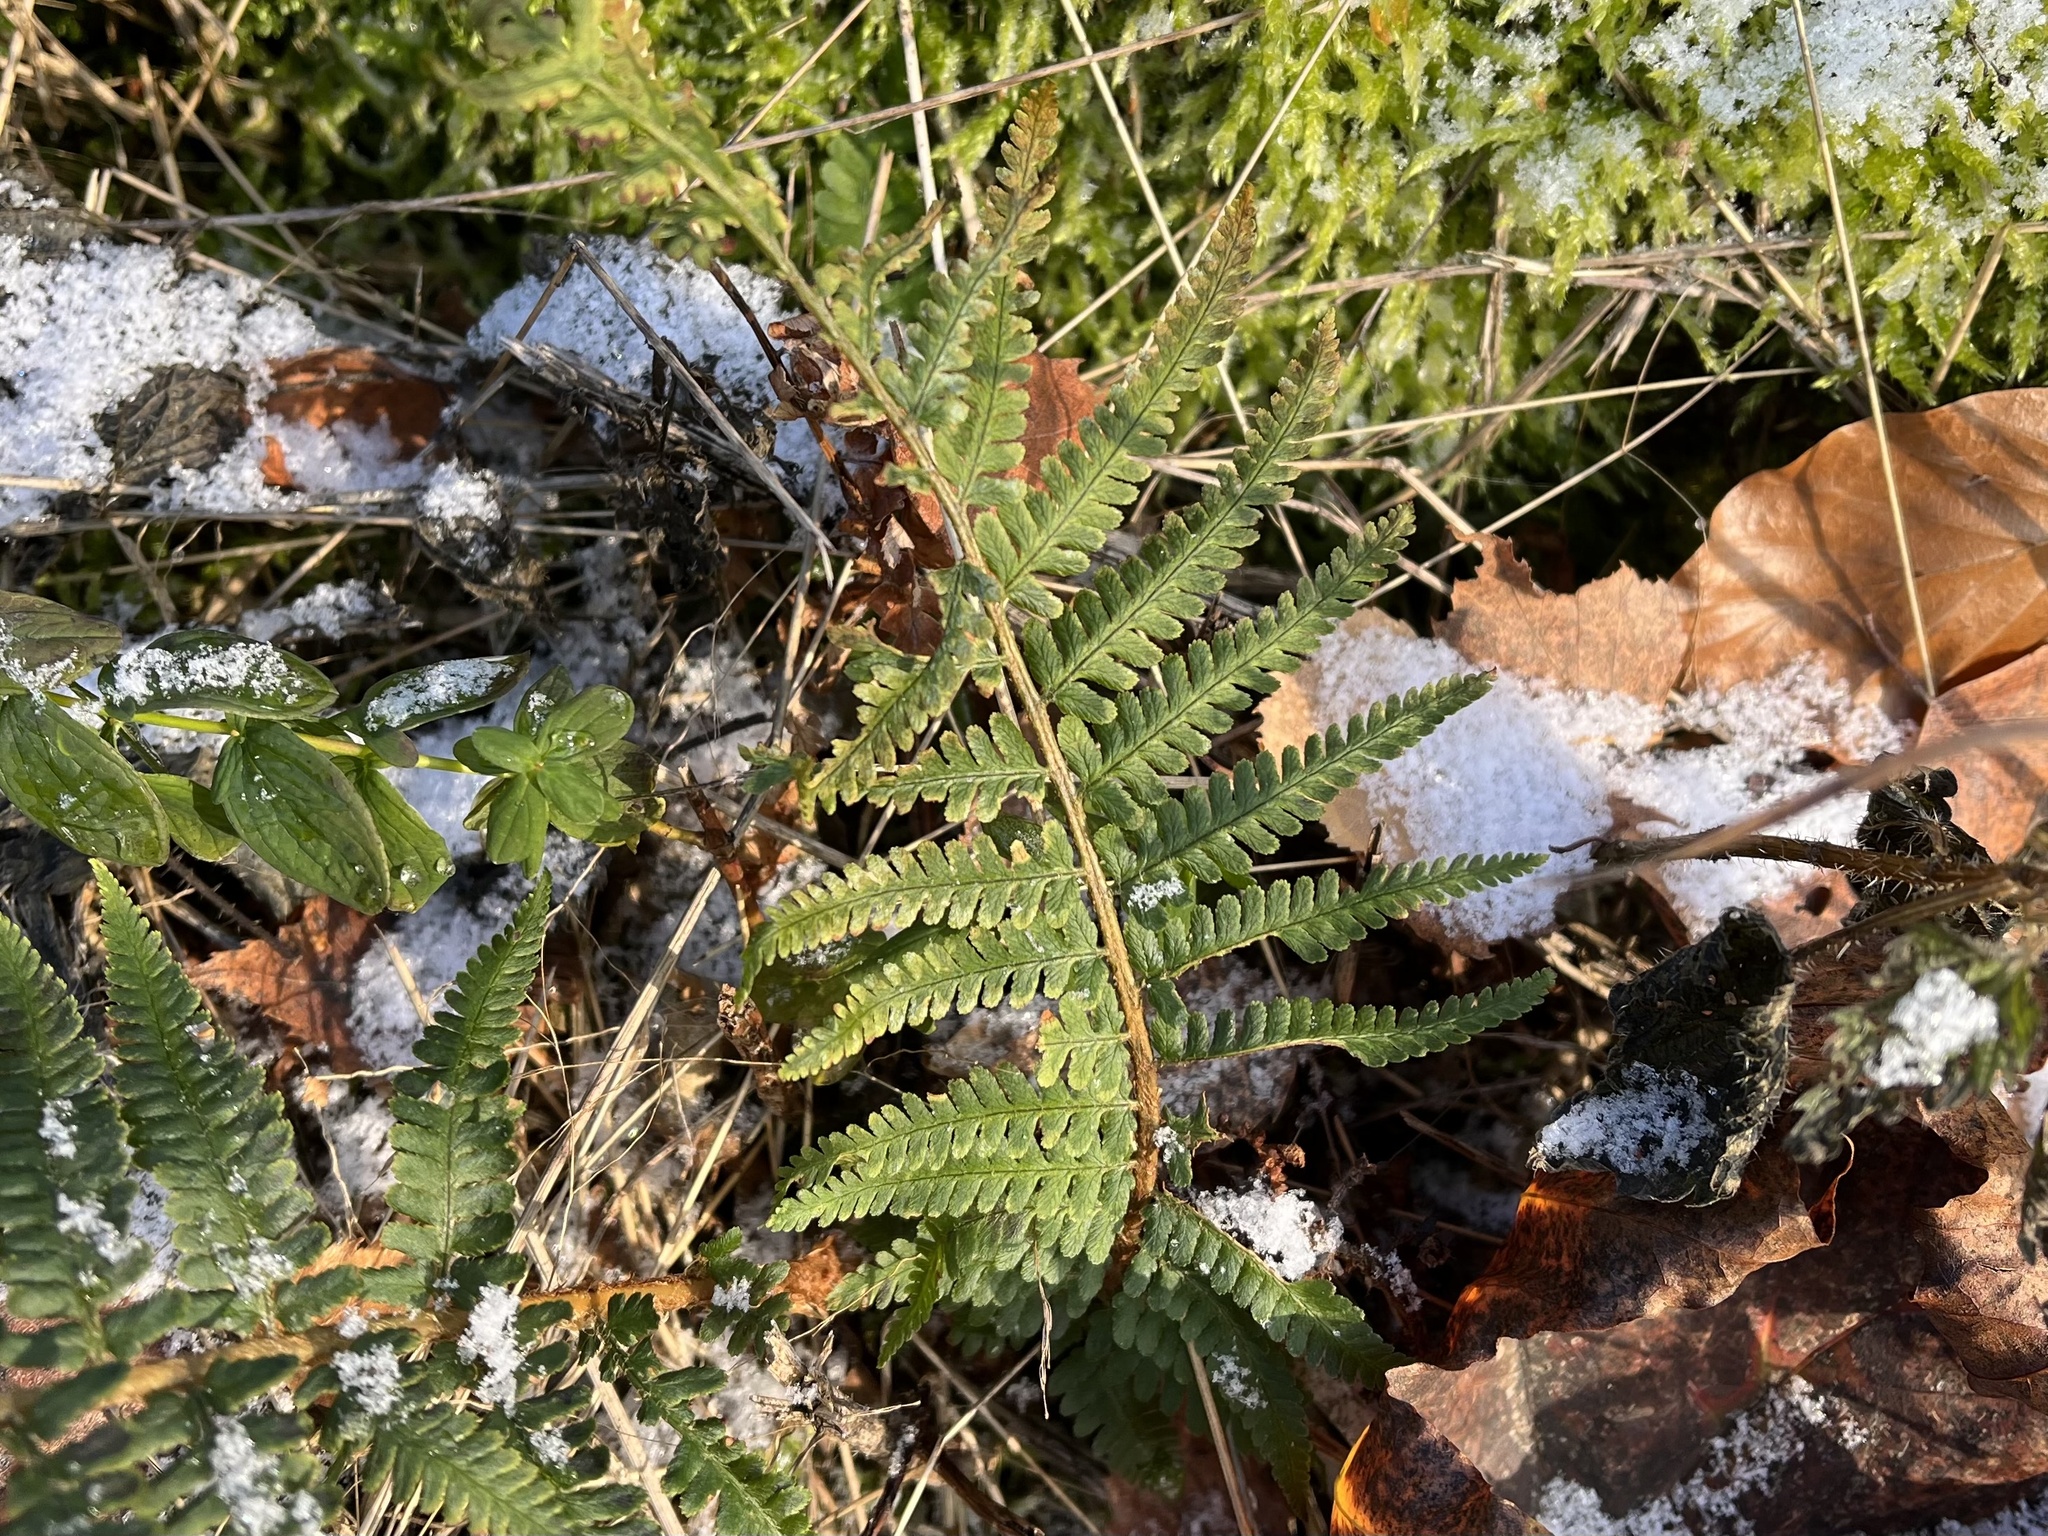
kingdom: Plantae
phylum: Tracheophyta
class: Polypodiopsida
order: Polypodiales
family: Dryopteridaceae
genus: Dryopteris
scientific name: Dryopteris filix-mas
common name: Male fern
